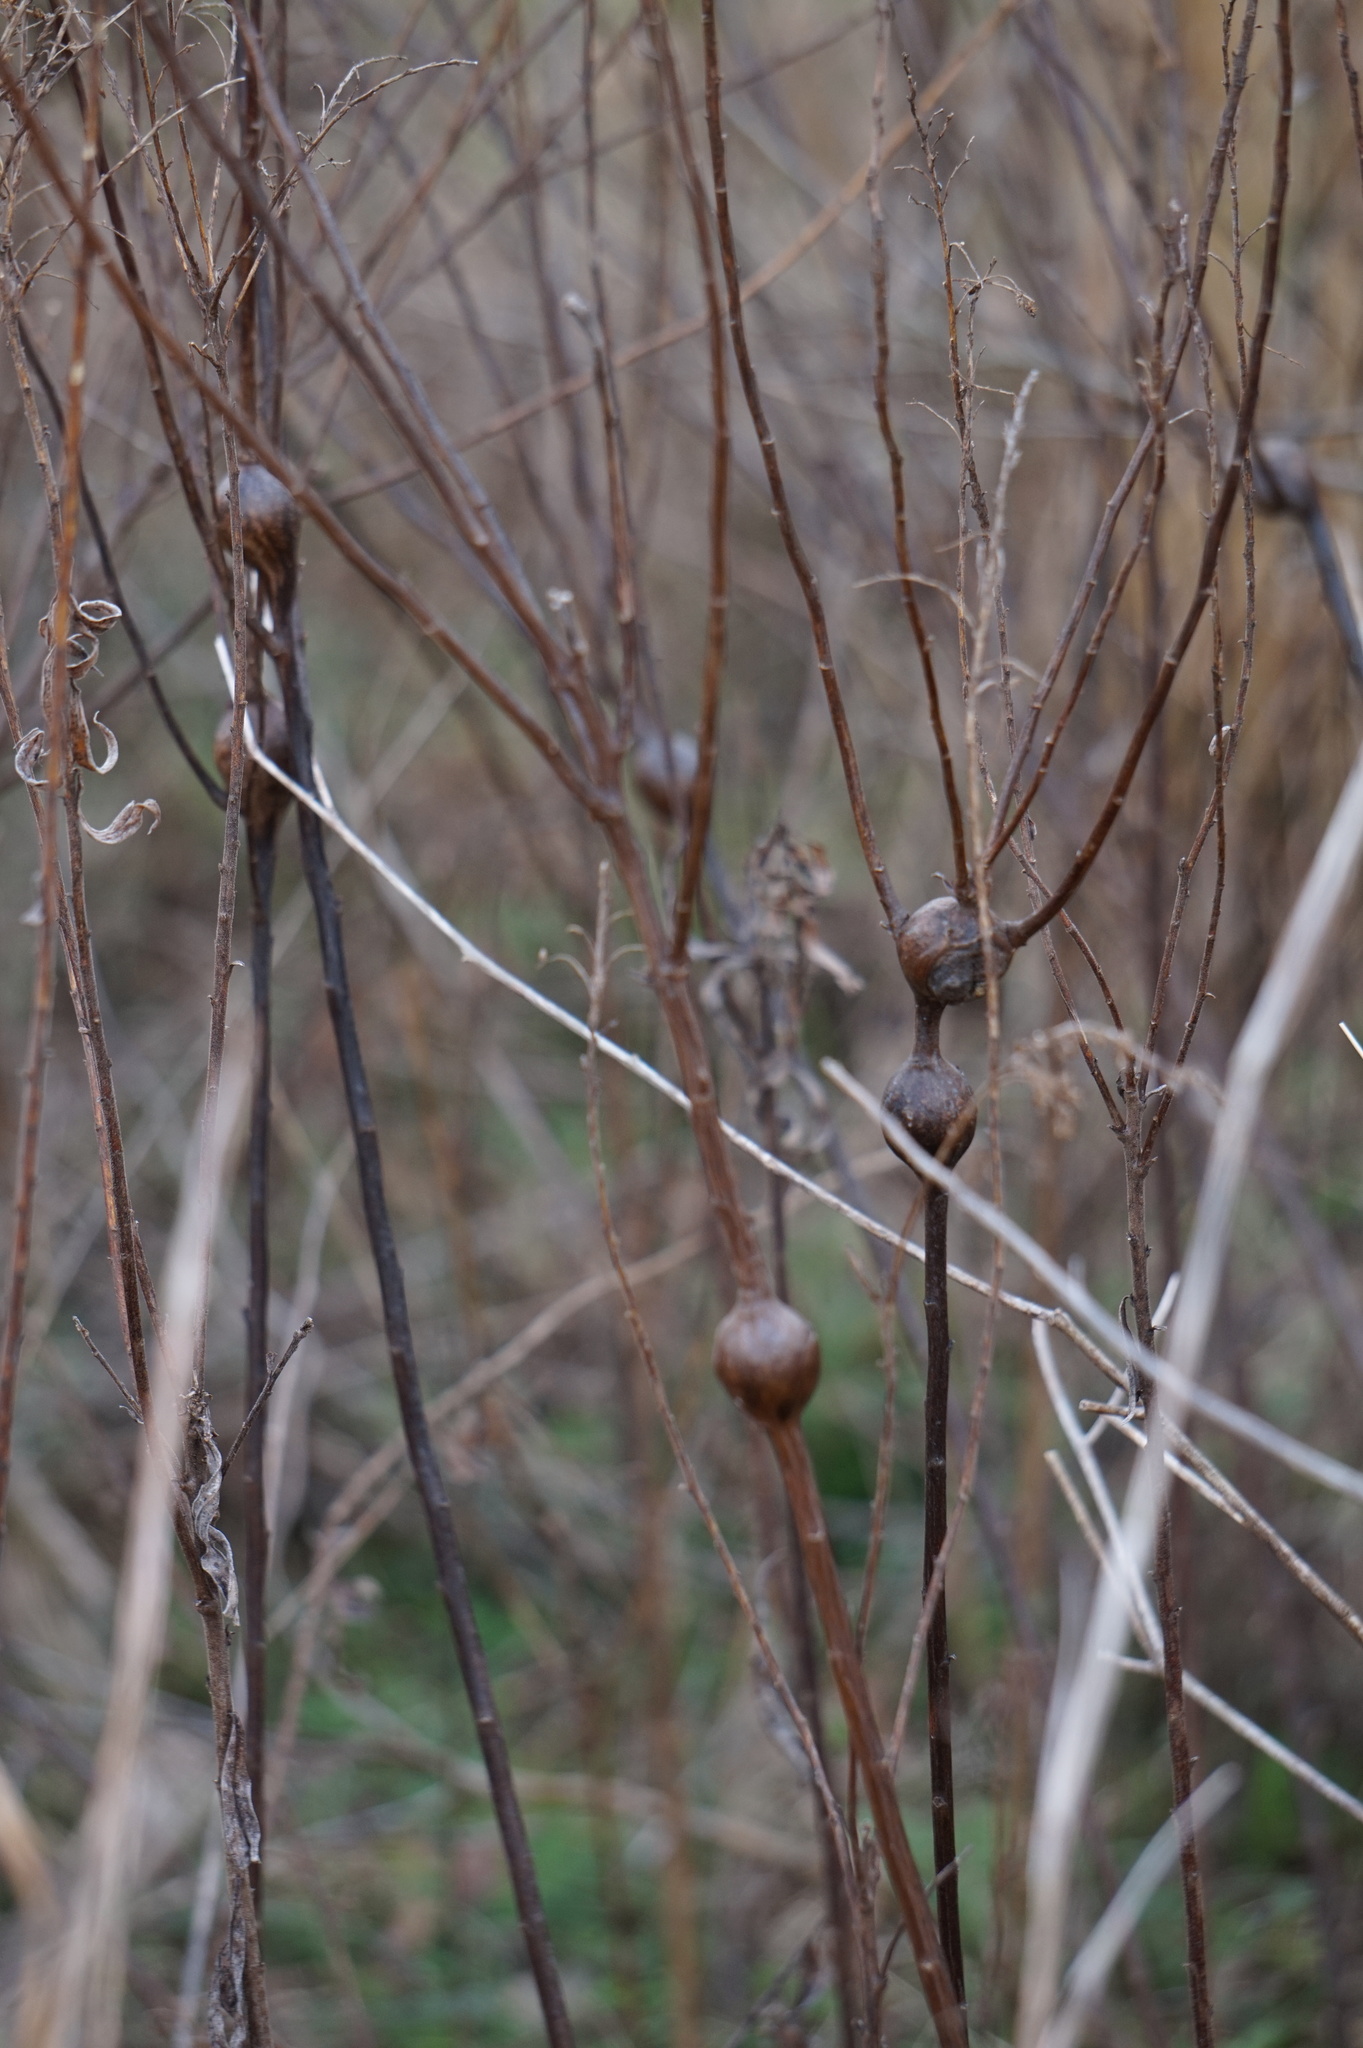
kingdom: Animalia
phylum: Arthropoda
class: Insecta
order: Diptera
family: Tephritidae
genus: Eurosta
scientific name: Eurosta solidaginis
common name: Goldenrod gall fly
